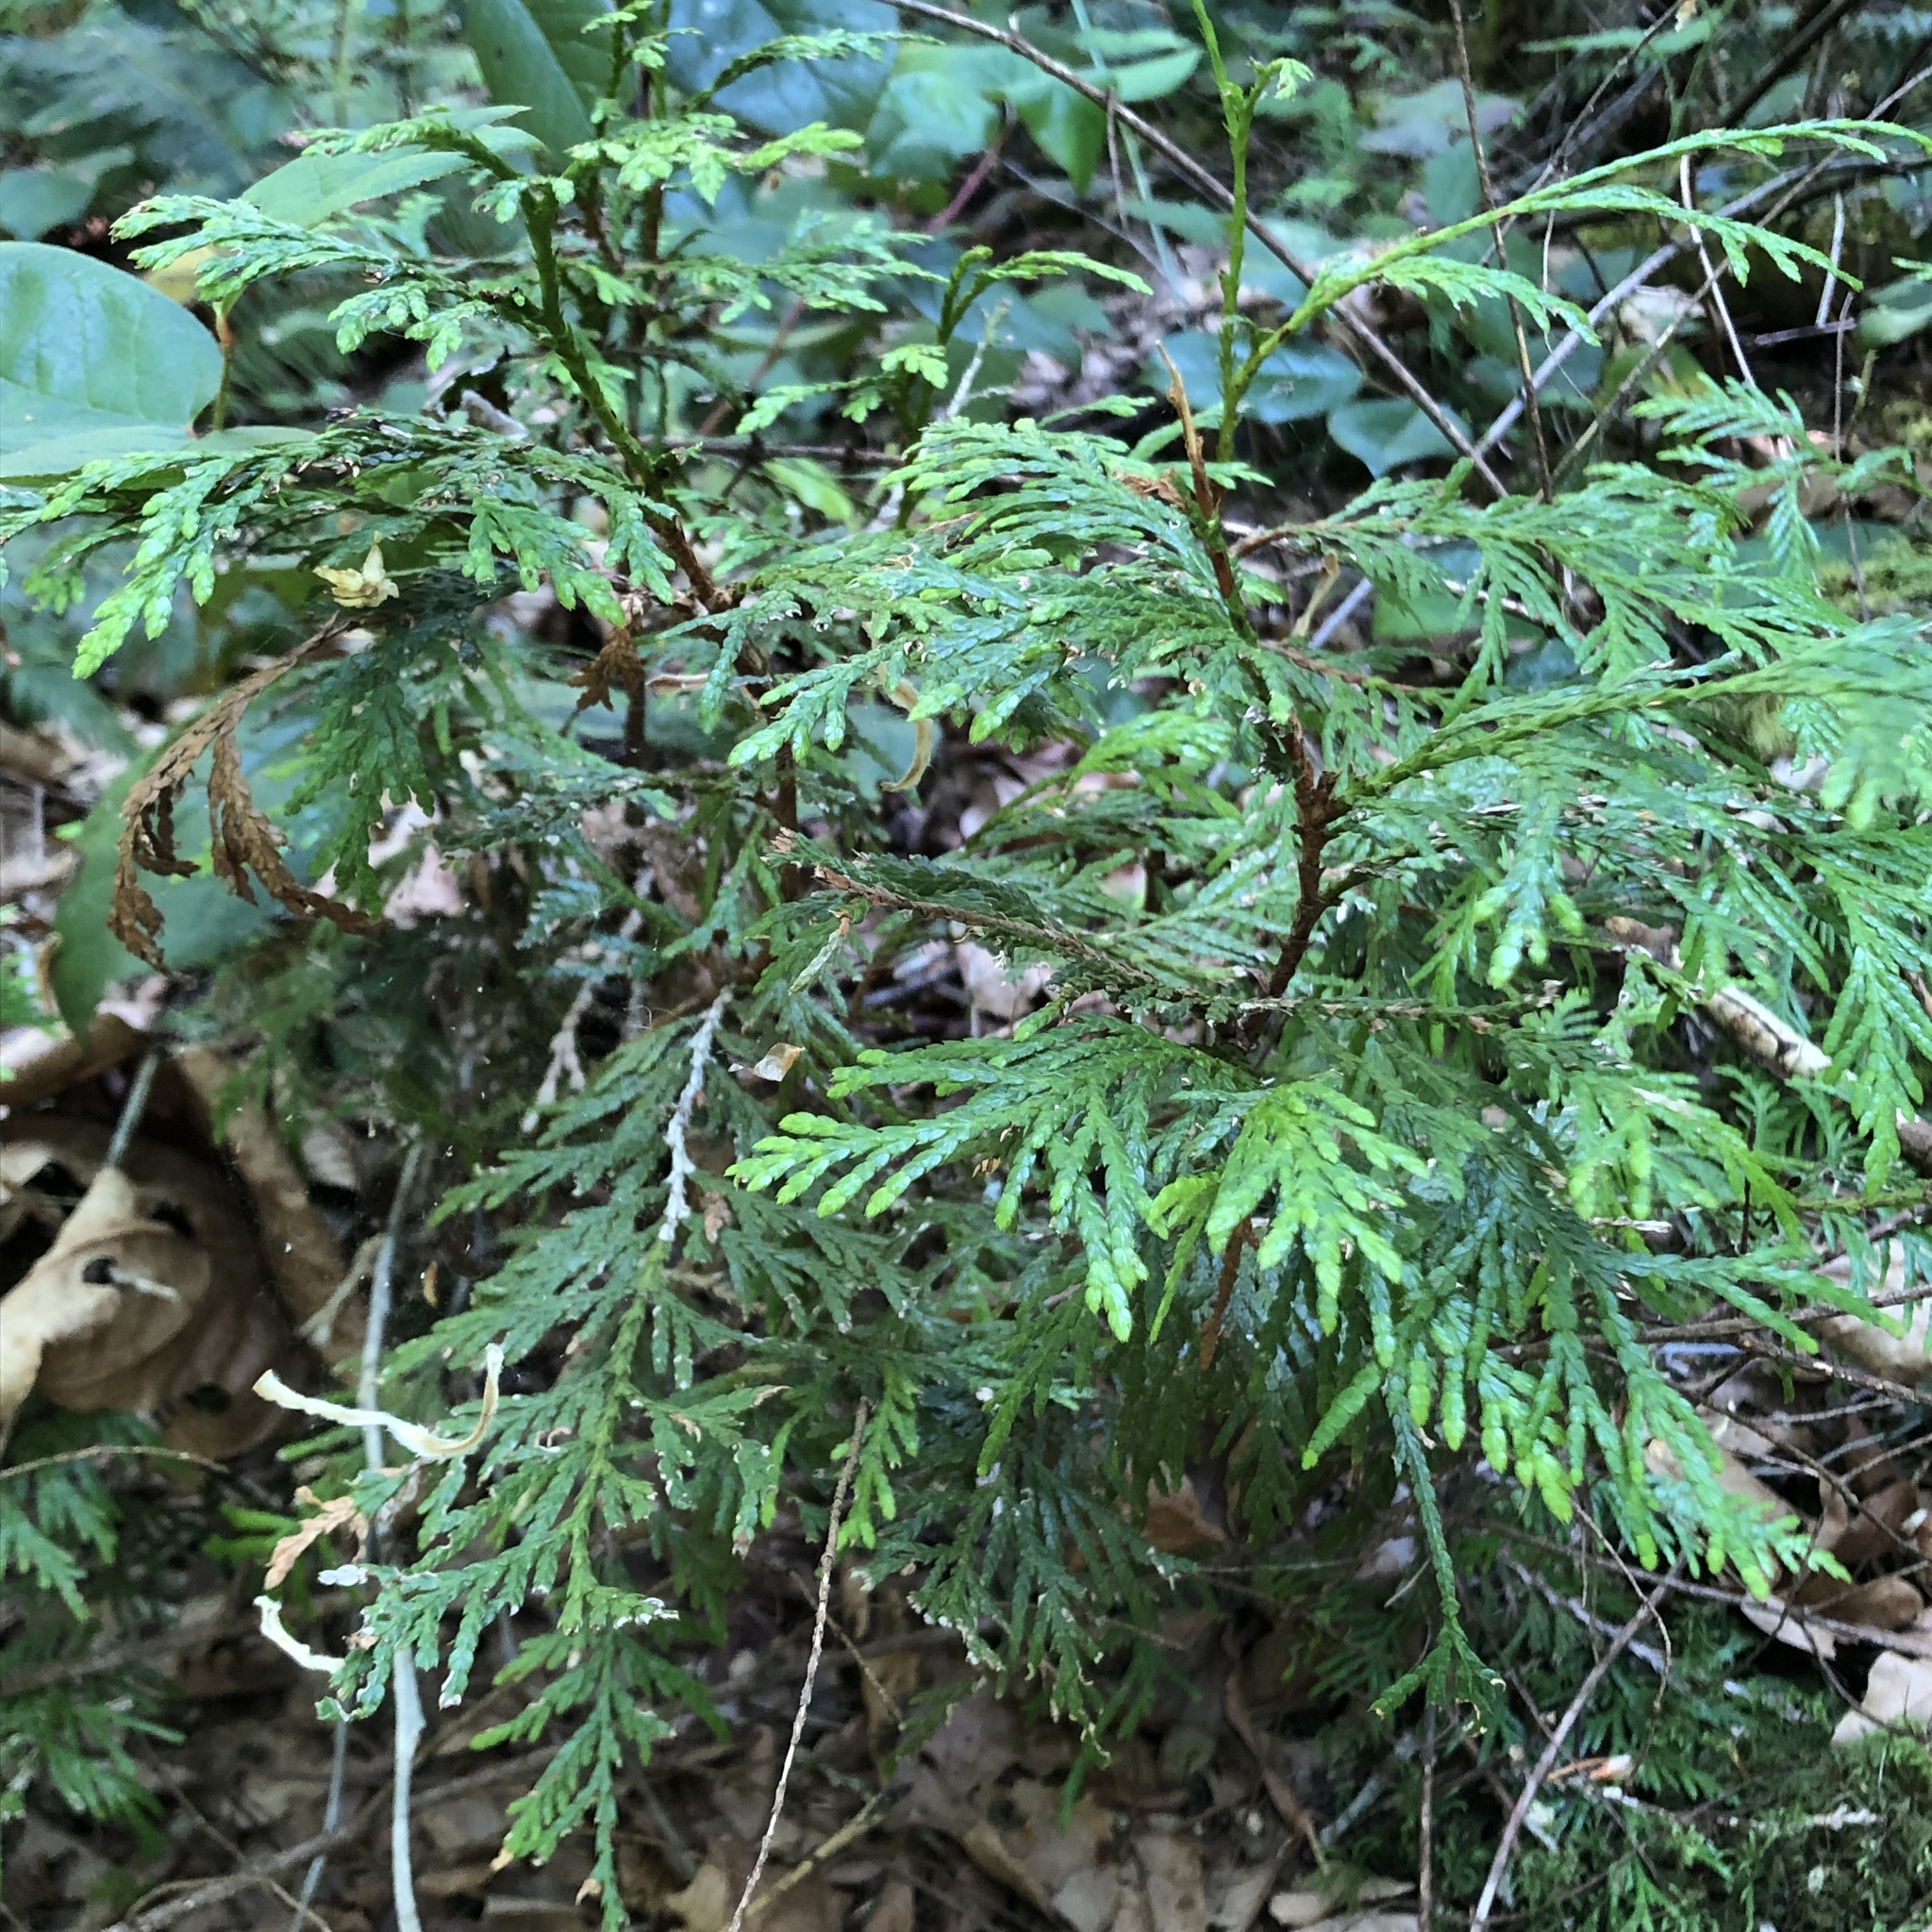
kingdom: Plantae
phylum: Tracheophyta
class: Pinopsida
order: Pinales
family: Cupressaceae
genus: Thuja
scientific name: Thuja plicata
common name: Western red-cedar
